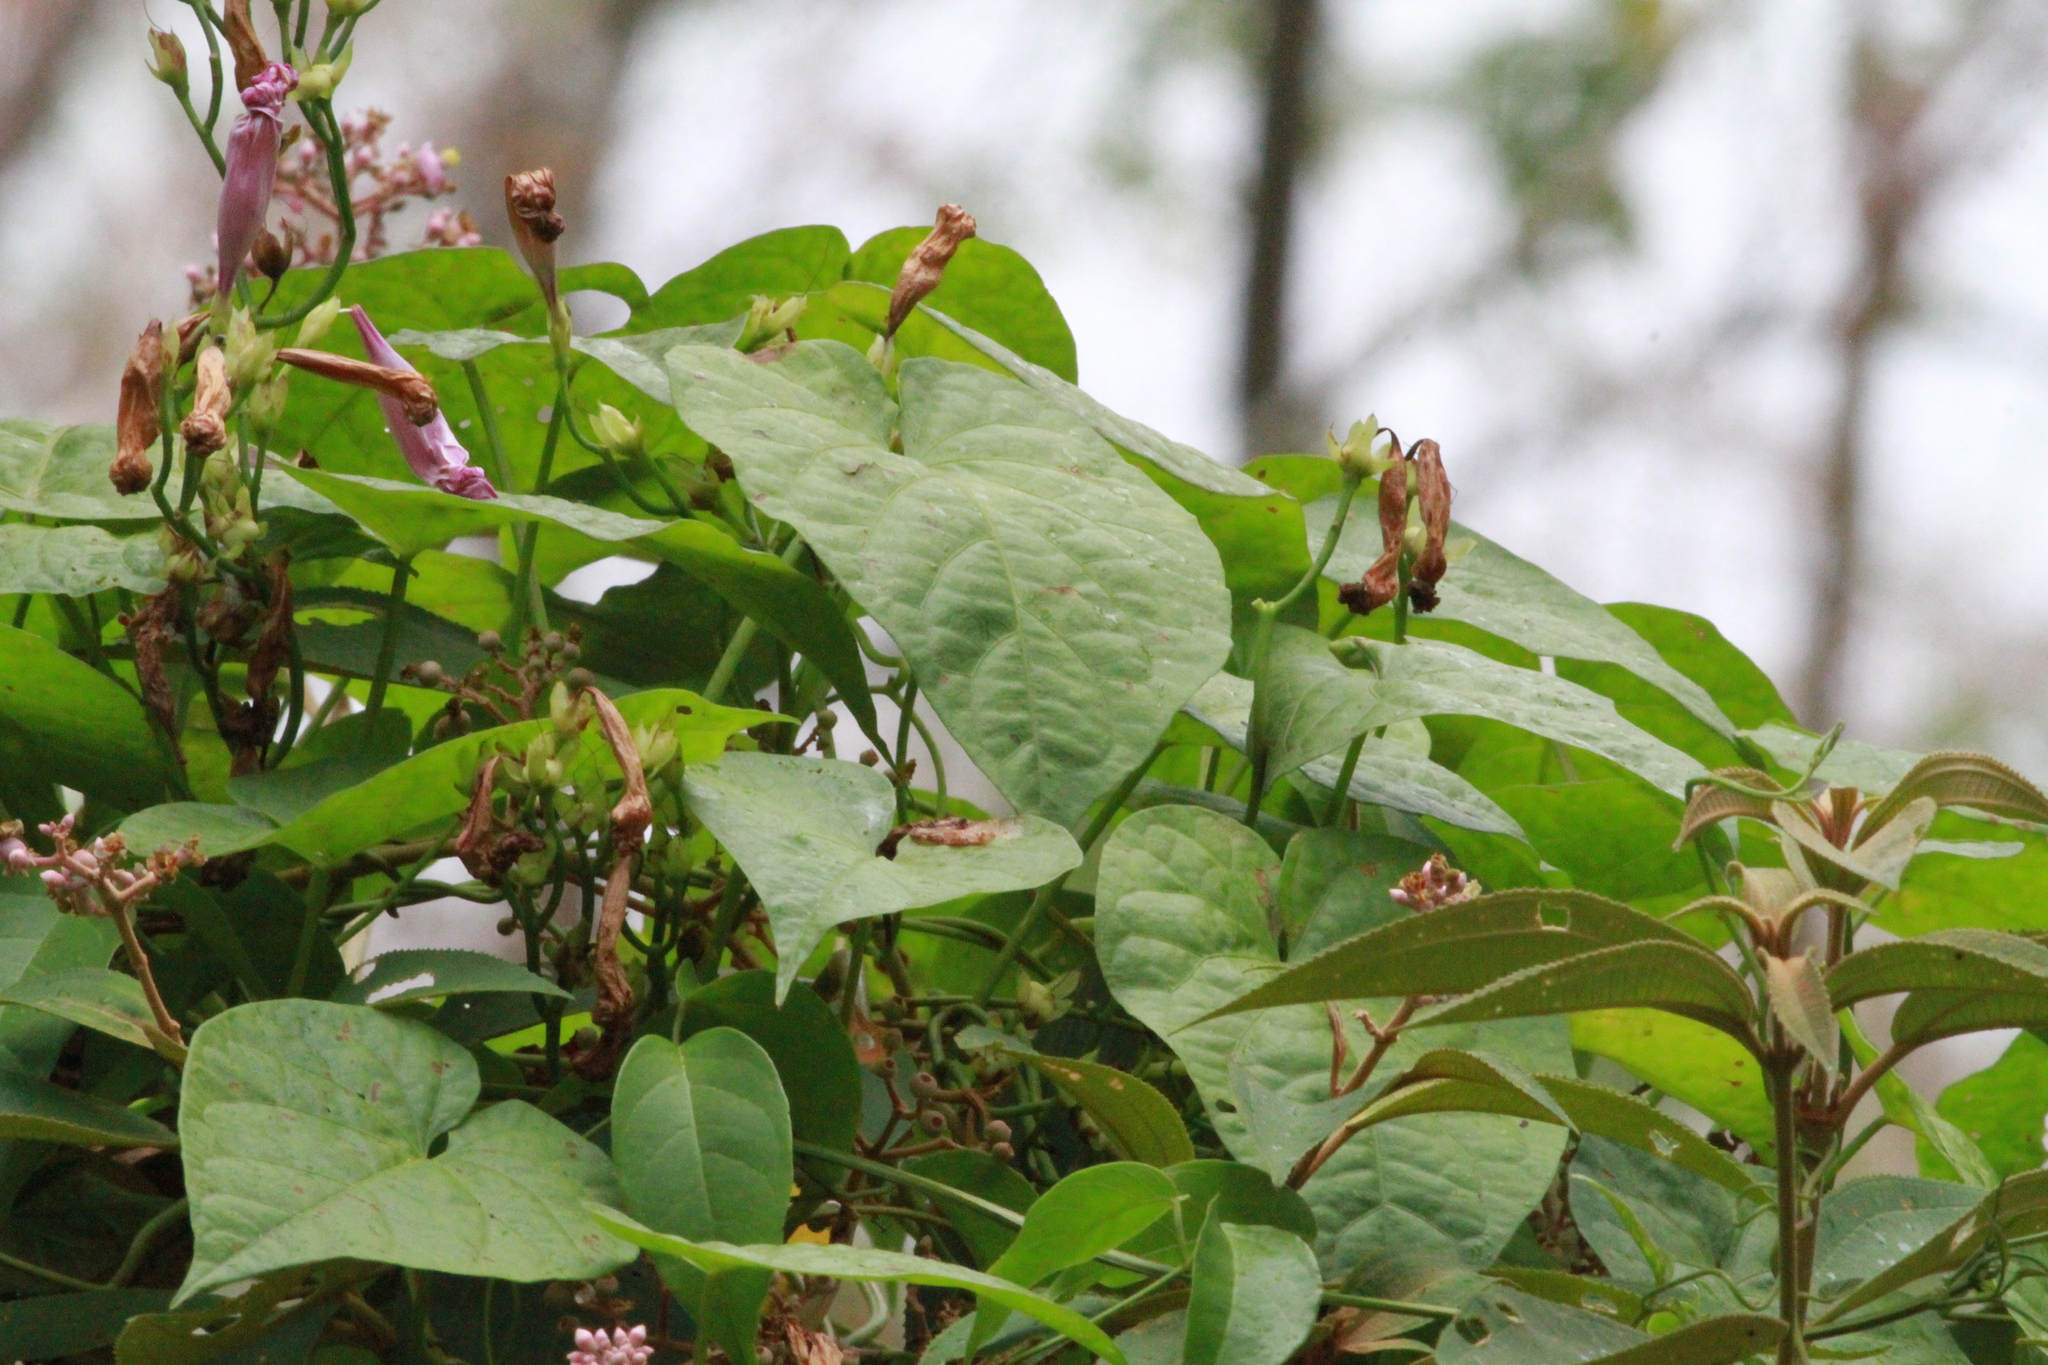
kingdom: Plantae
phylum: Tracheophyta
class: Magnoliopsida
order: Solanales
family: Convolvulaceae
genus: Ipomoea
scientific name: Ipomoea splendor-sylvae
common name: Morning glory
